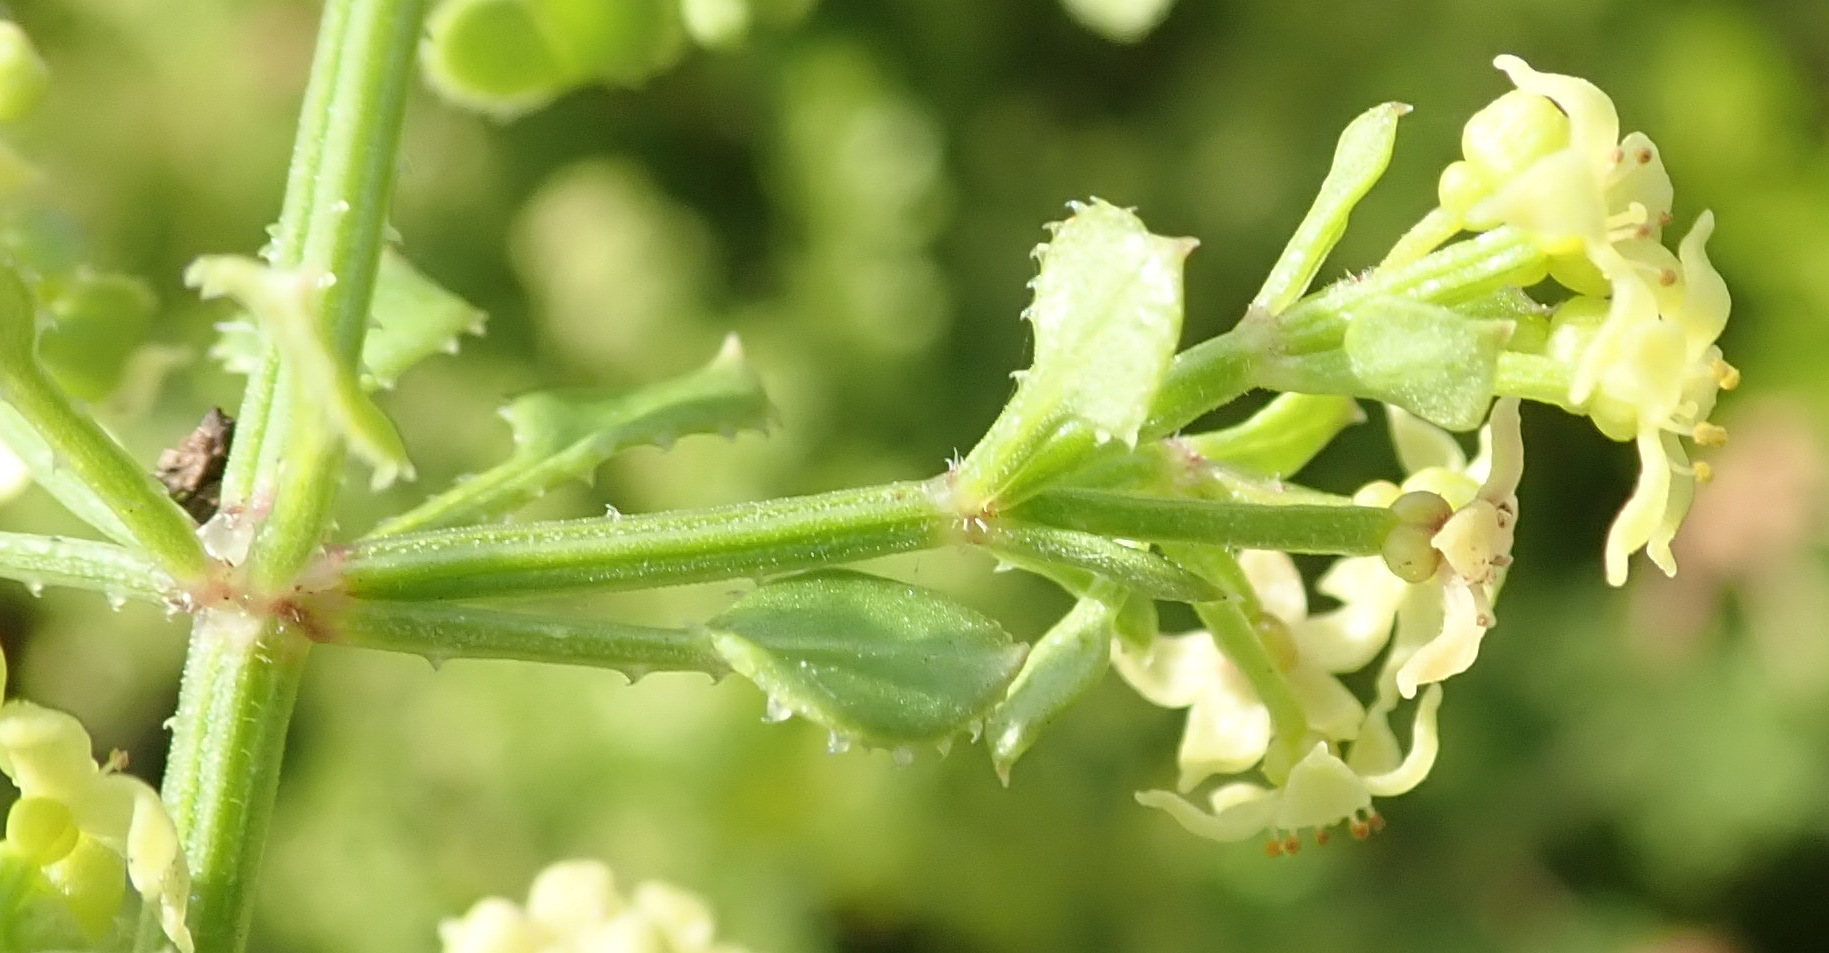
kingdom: Plantae
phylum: Tracheophyta
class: Magnoliopsida
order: Gentianales
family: Rubiaceae
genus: Rubia
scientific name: Rubia petiolaris
